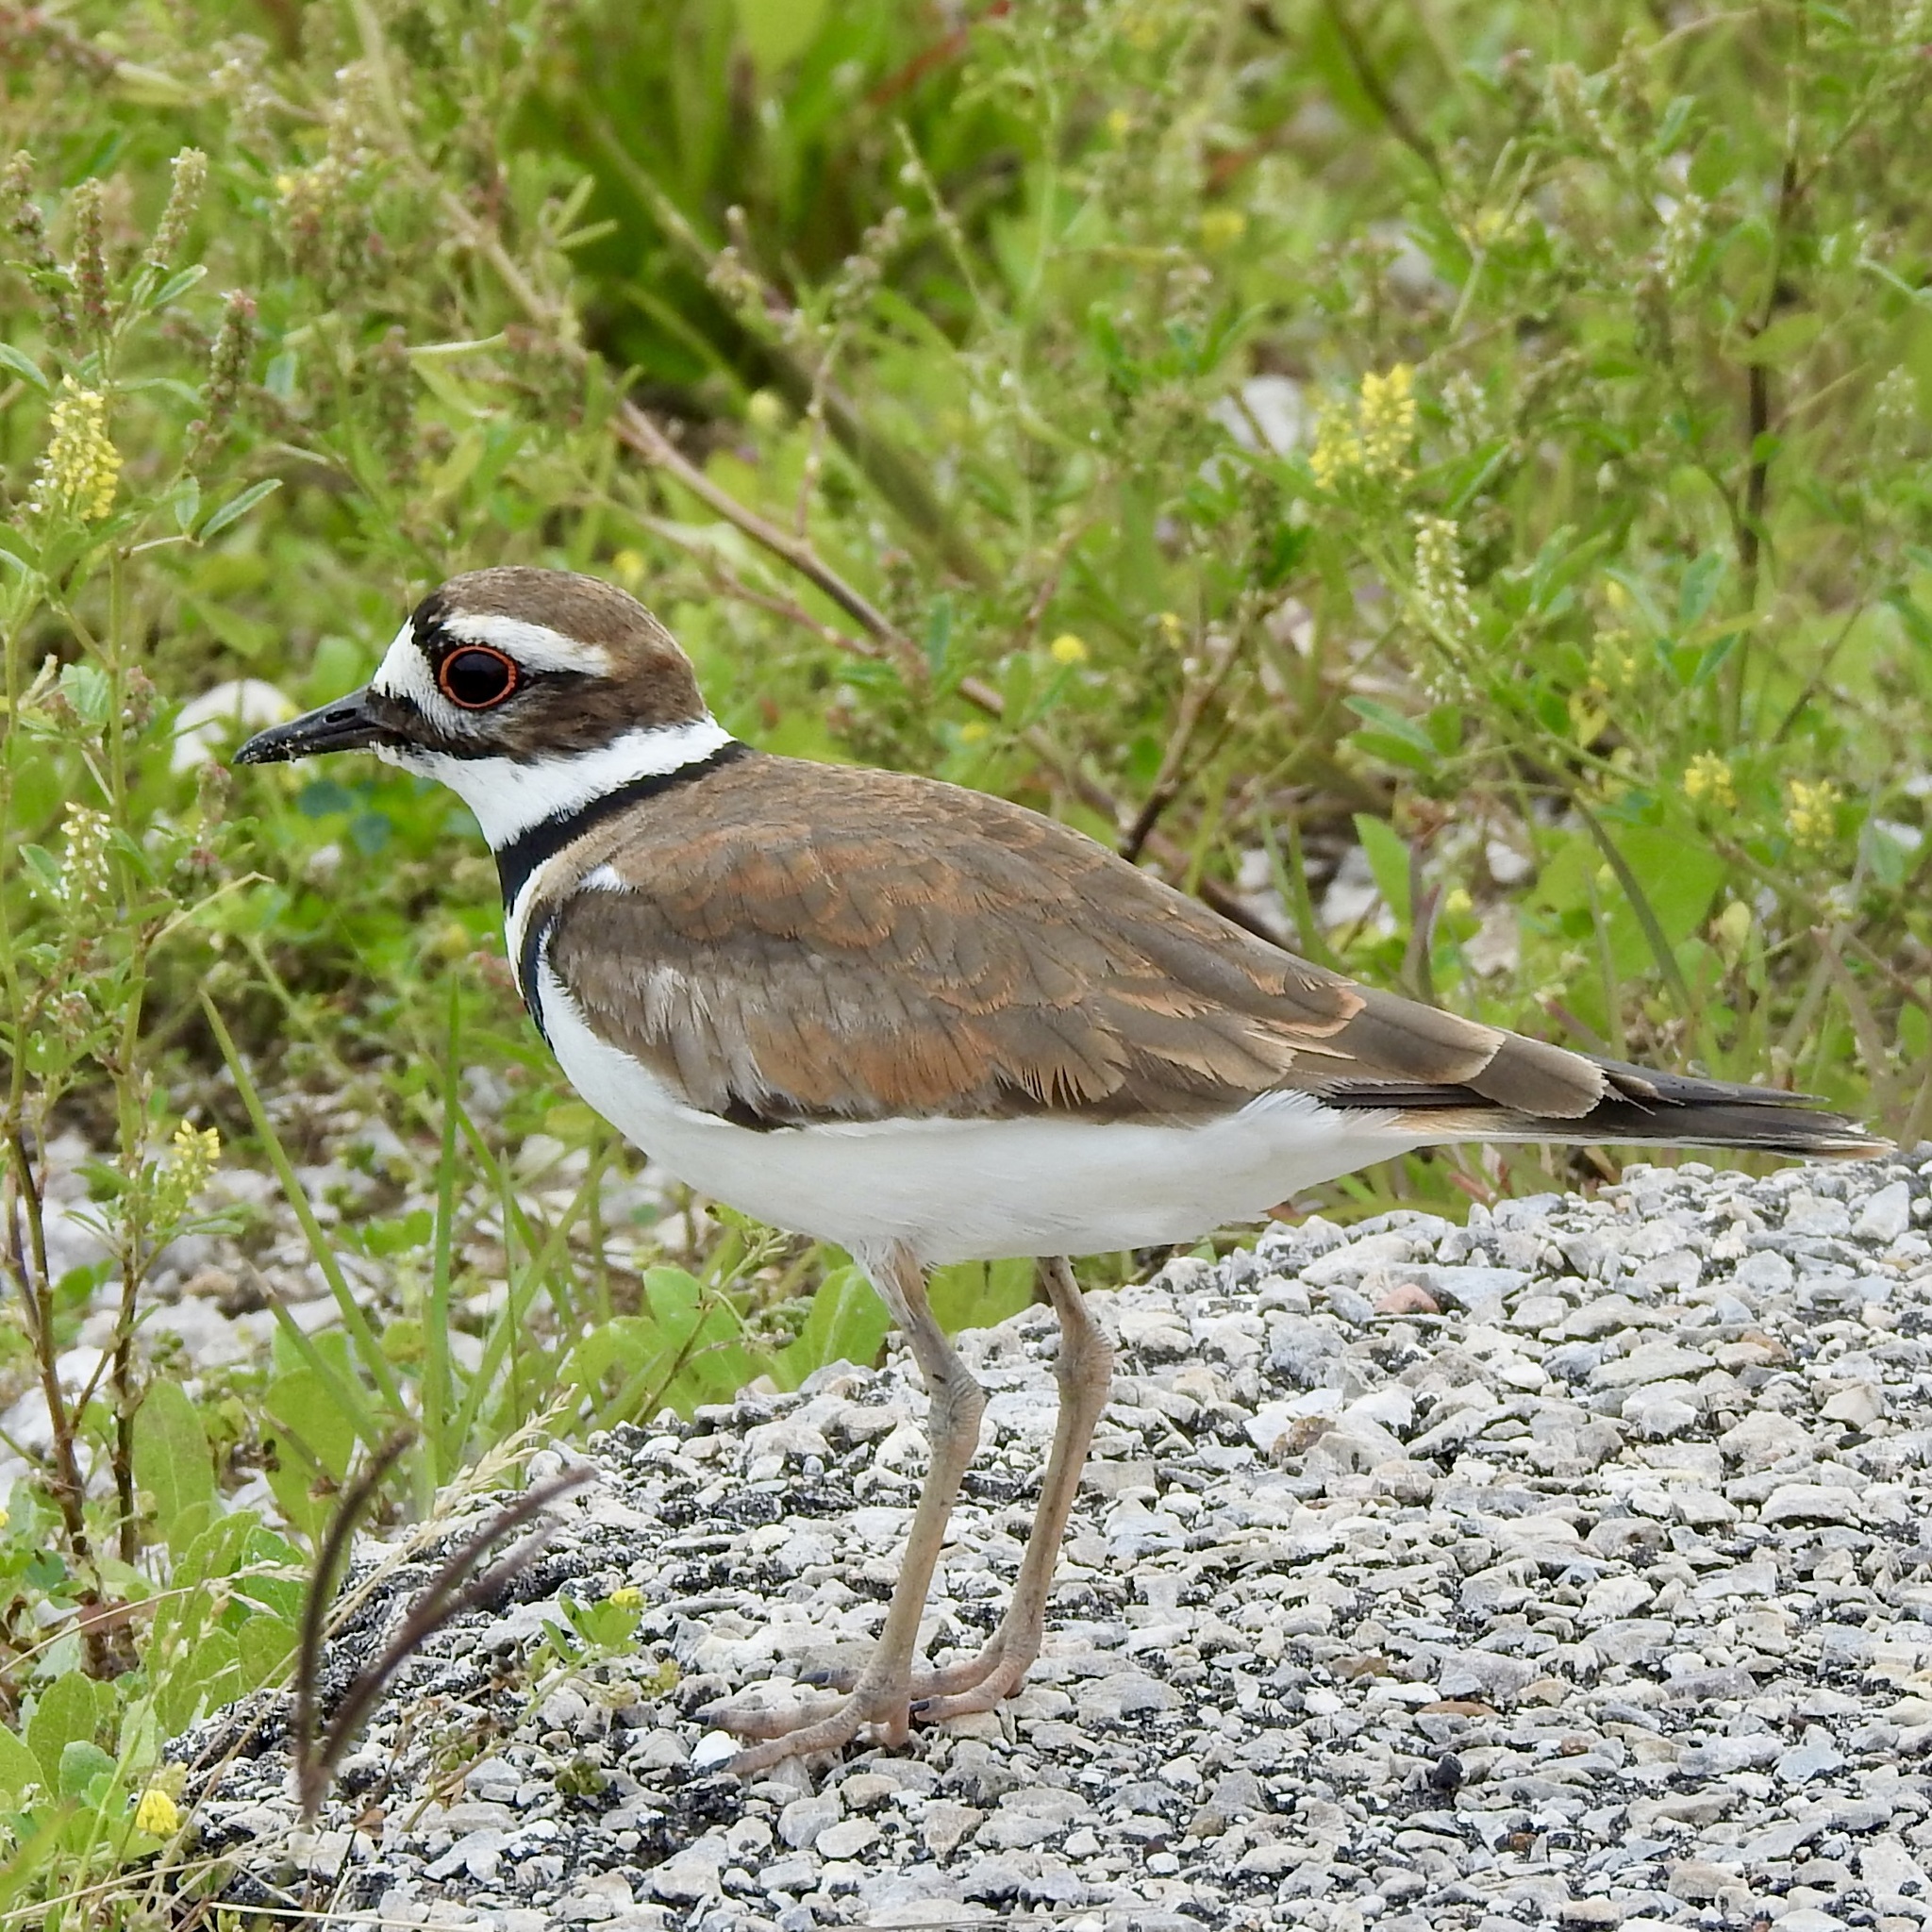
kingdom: Animalia
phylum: Chordata
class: Aves
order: Charadriiformes
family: Charadriidae
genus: Charadrius
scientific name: Charadrius vociferus
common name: Killdeer
